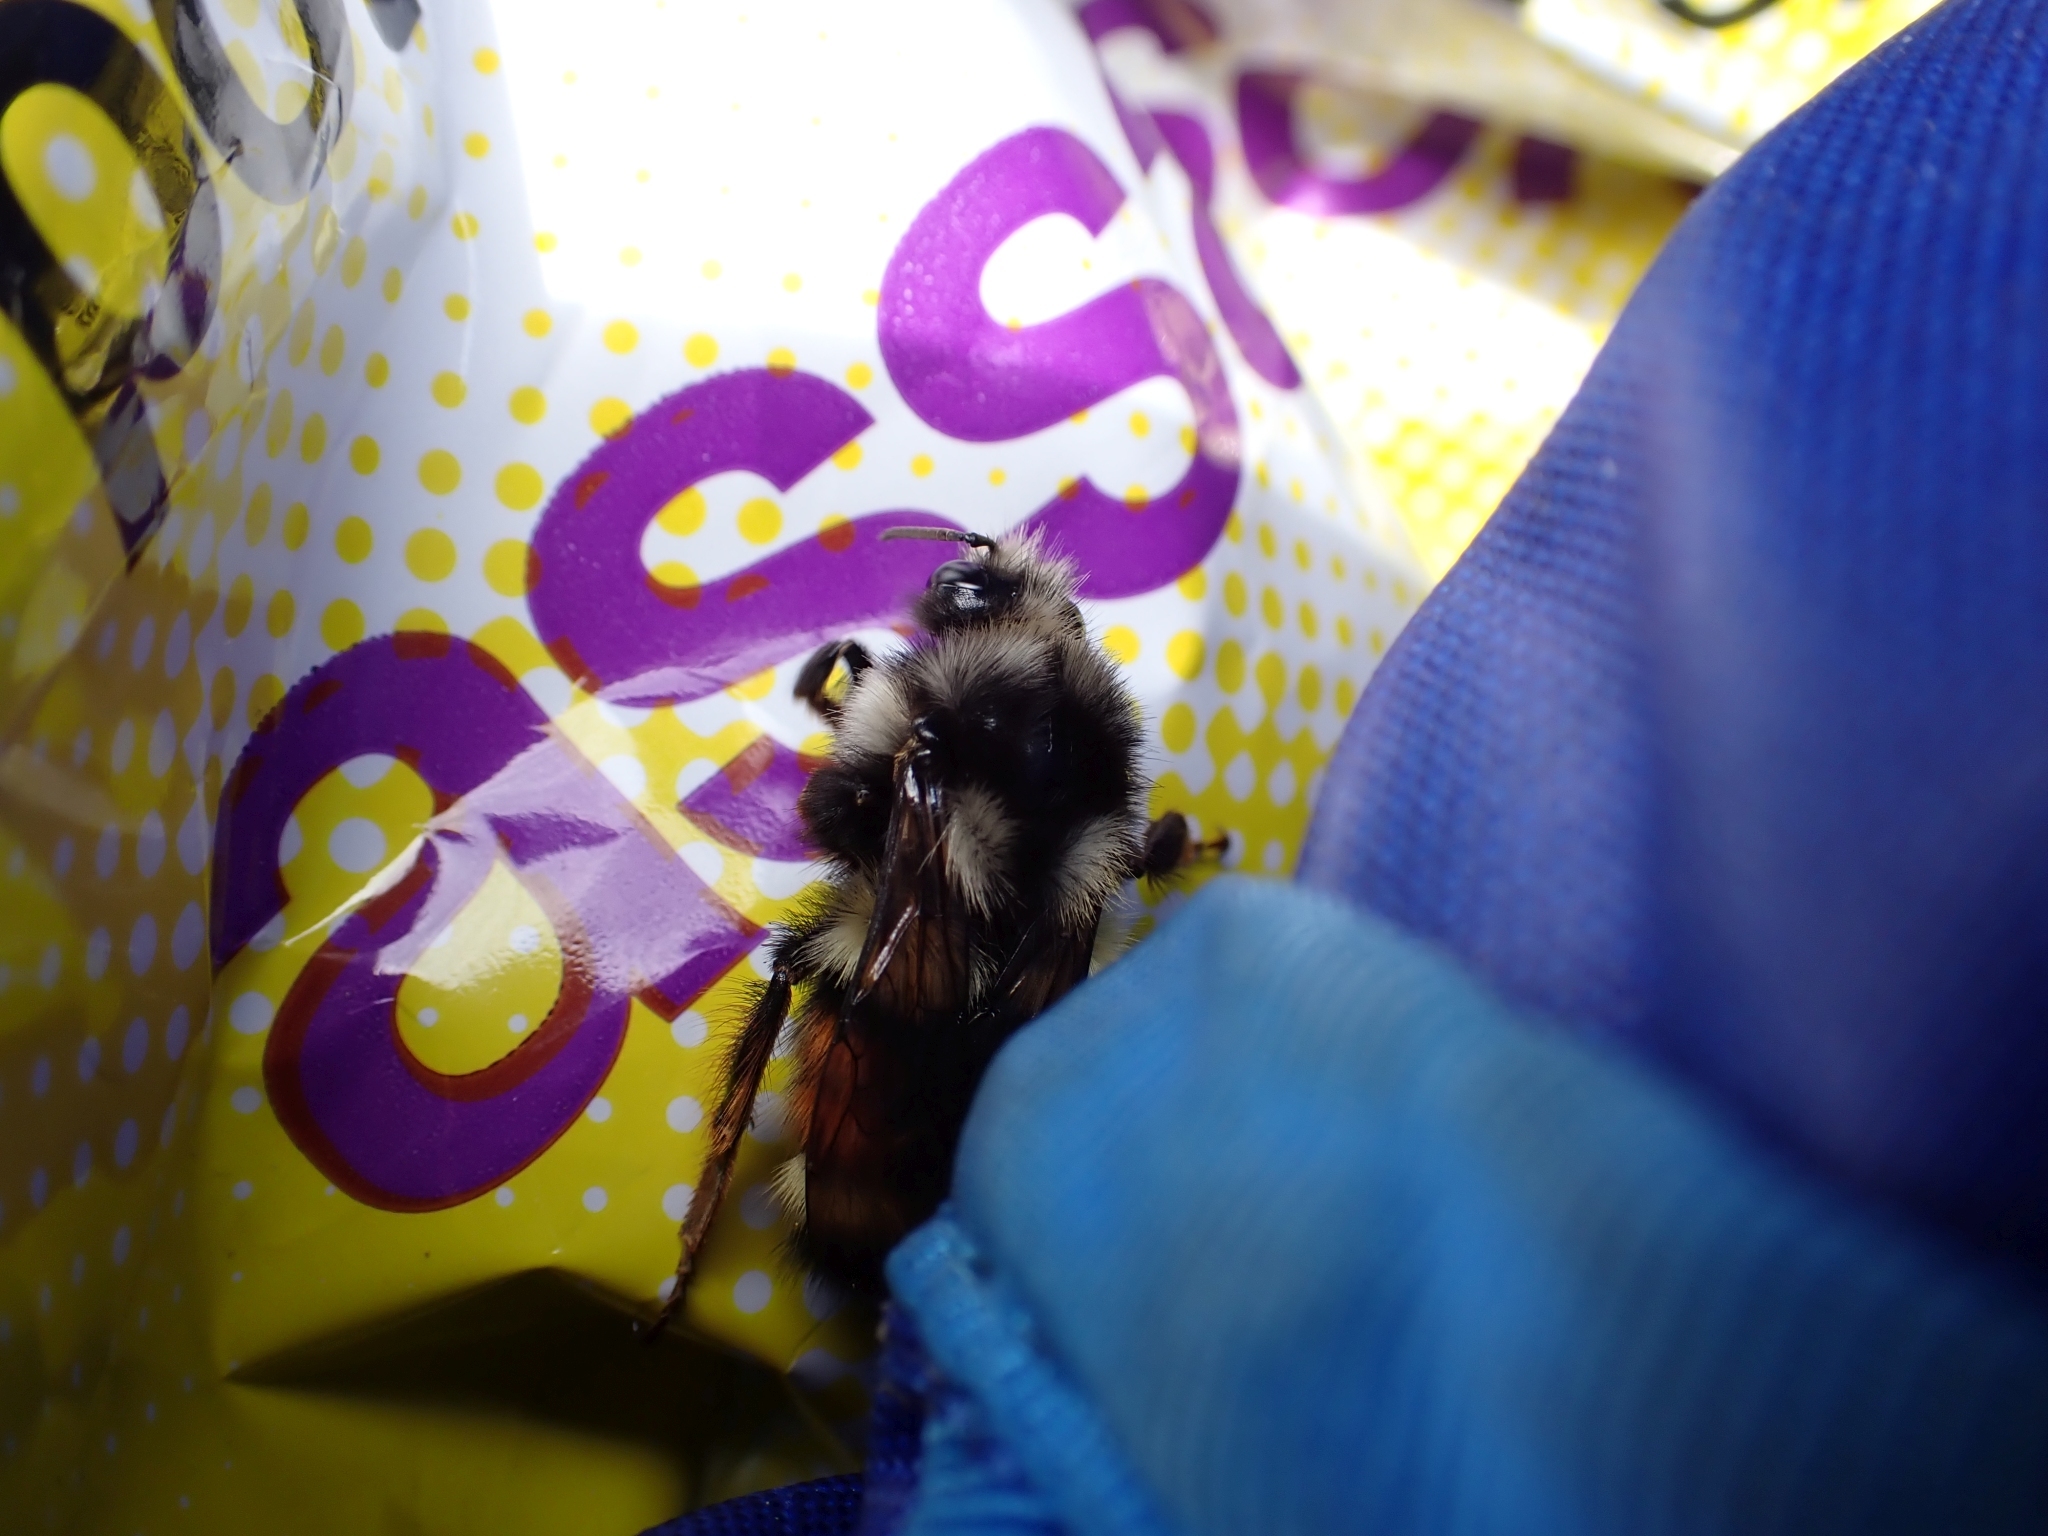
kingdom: Animalia
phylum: Arthropoda
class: Insecta
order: Hymenoptera
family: Apidae
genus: Bombus
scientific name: Bombus vancouverensis
